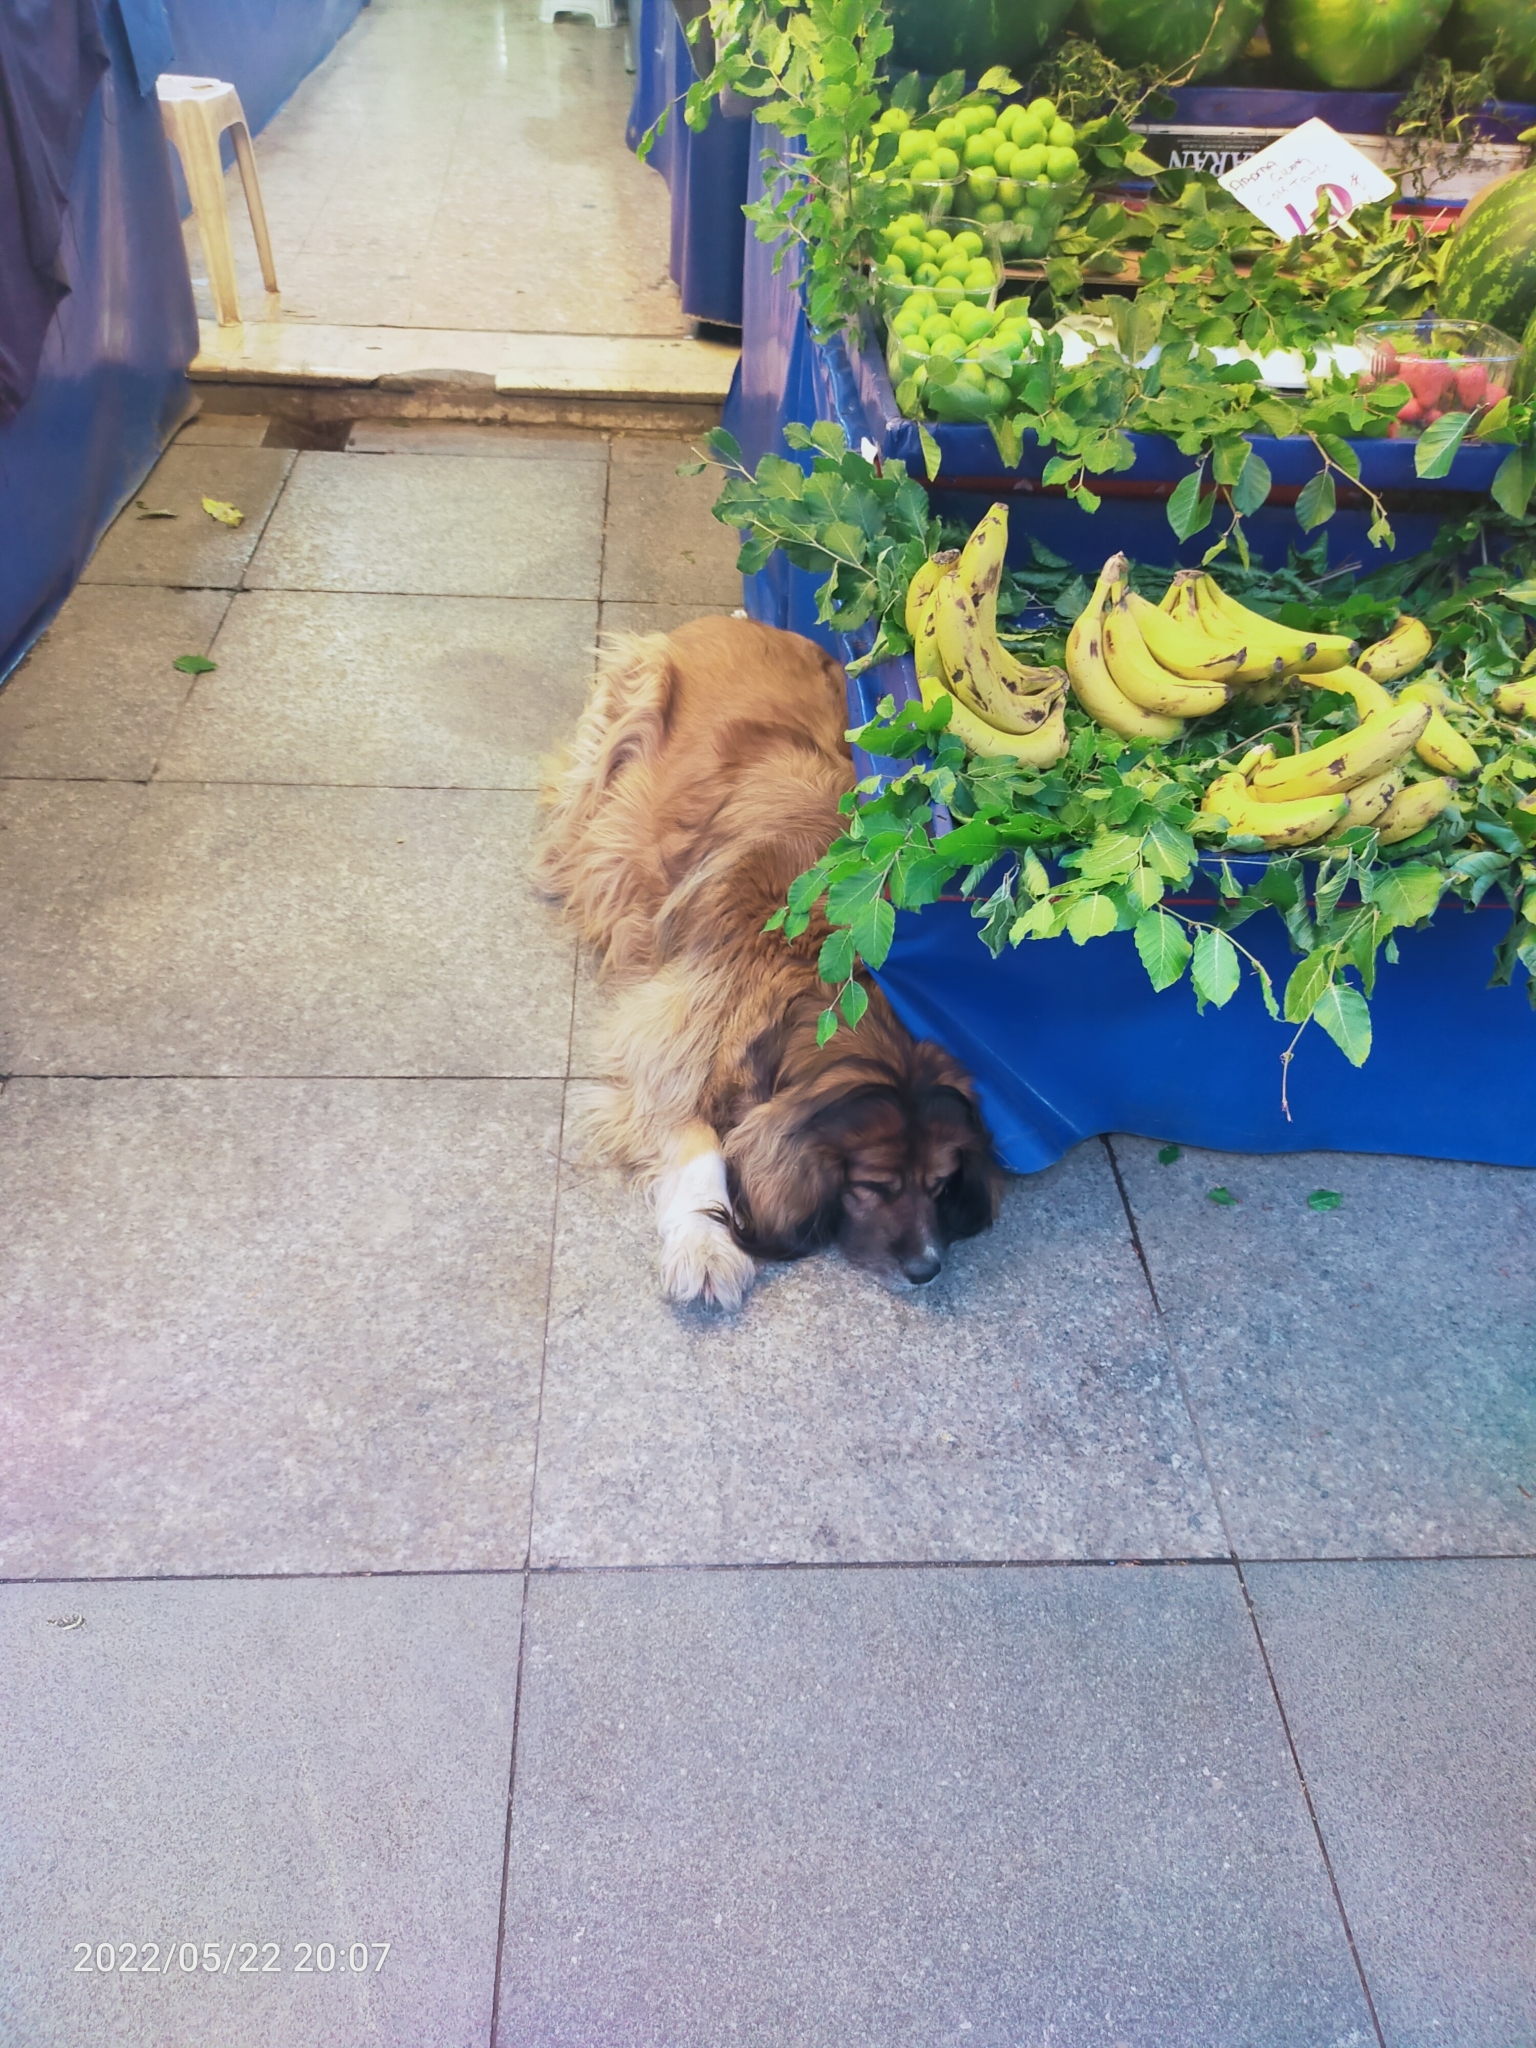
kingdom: Animalia
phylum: Chordata
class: Mammalia
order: Carnivora
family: Canidae
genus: Canis
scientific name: Canis lupus
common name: Gray wolf
